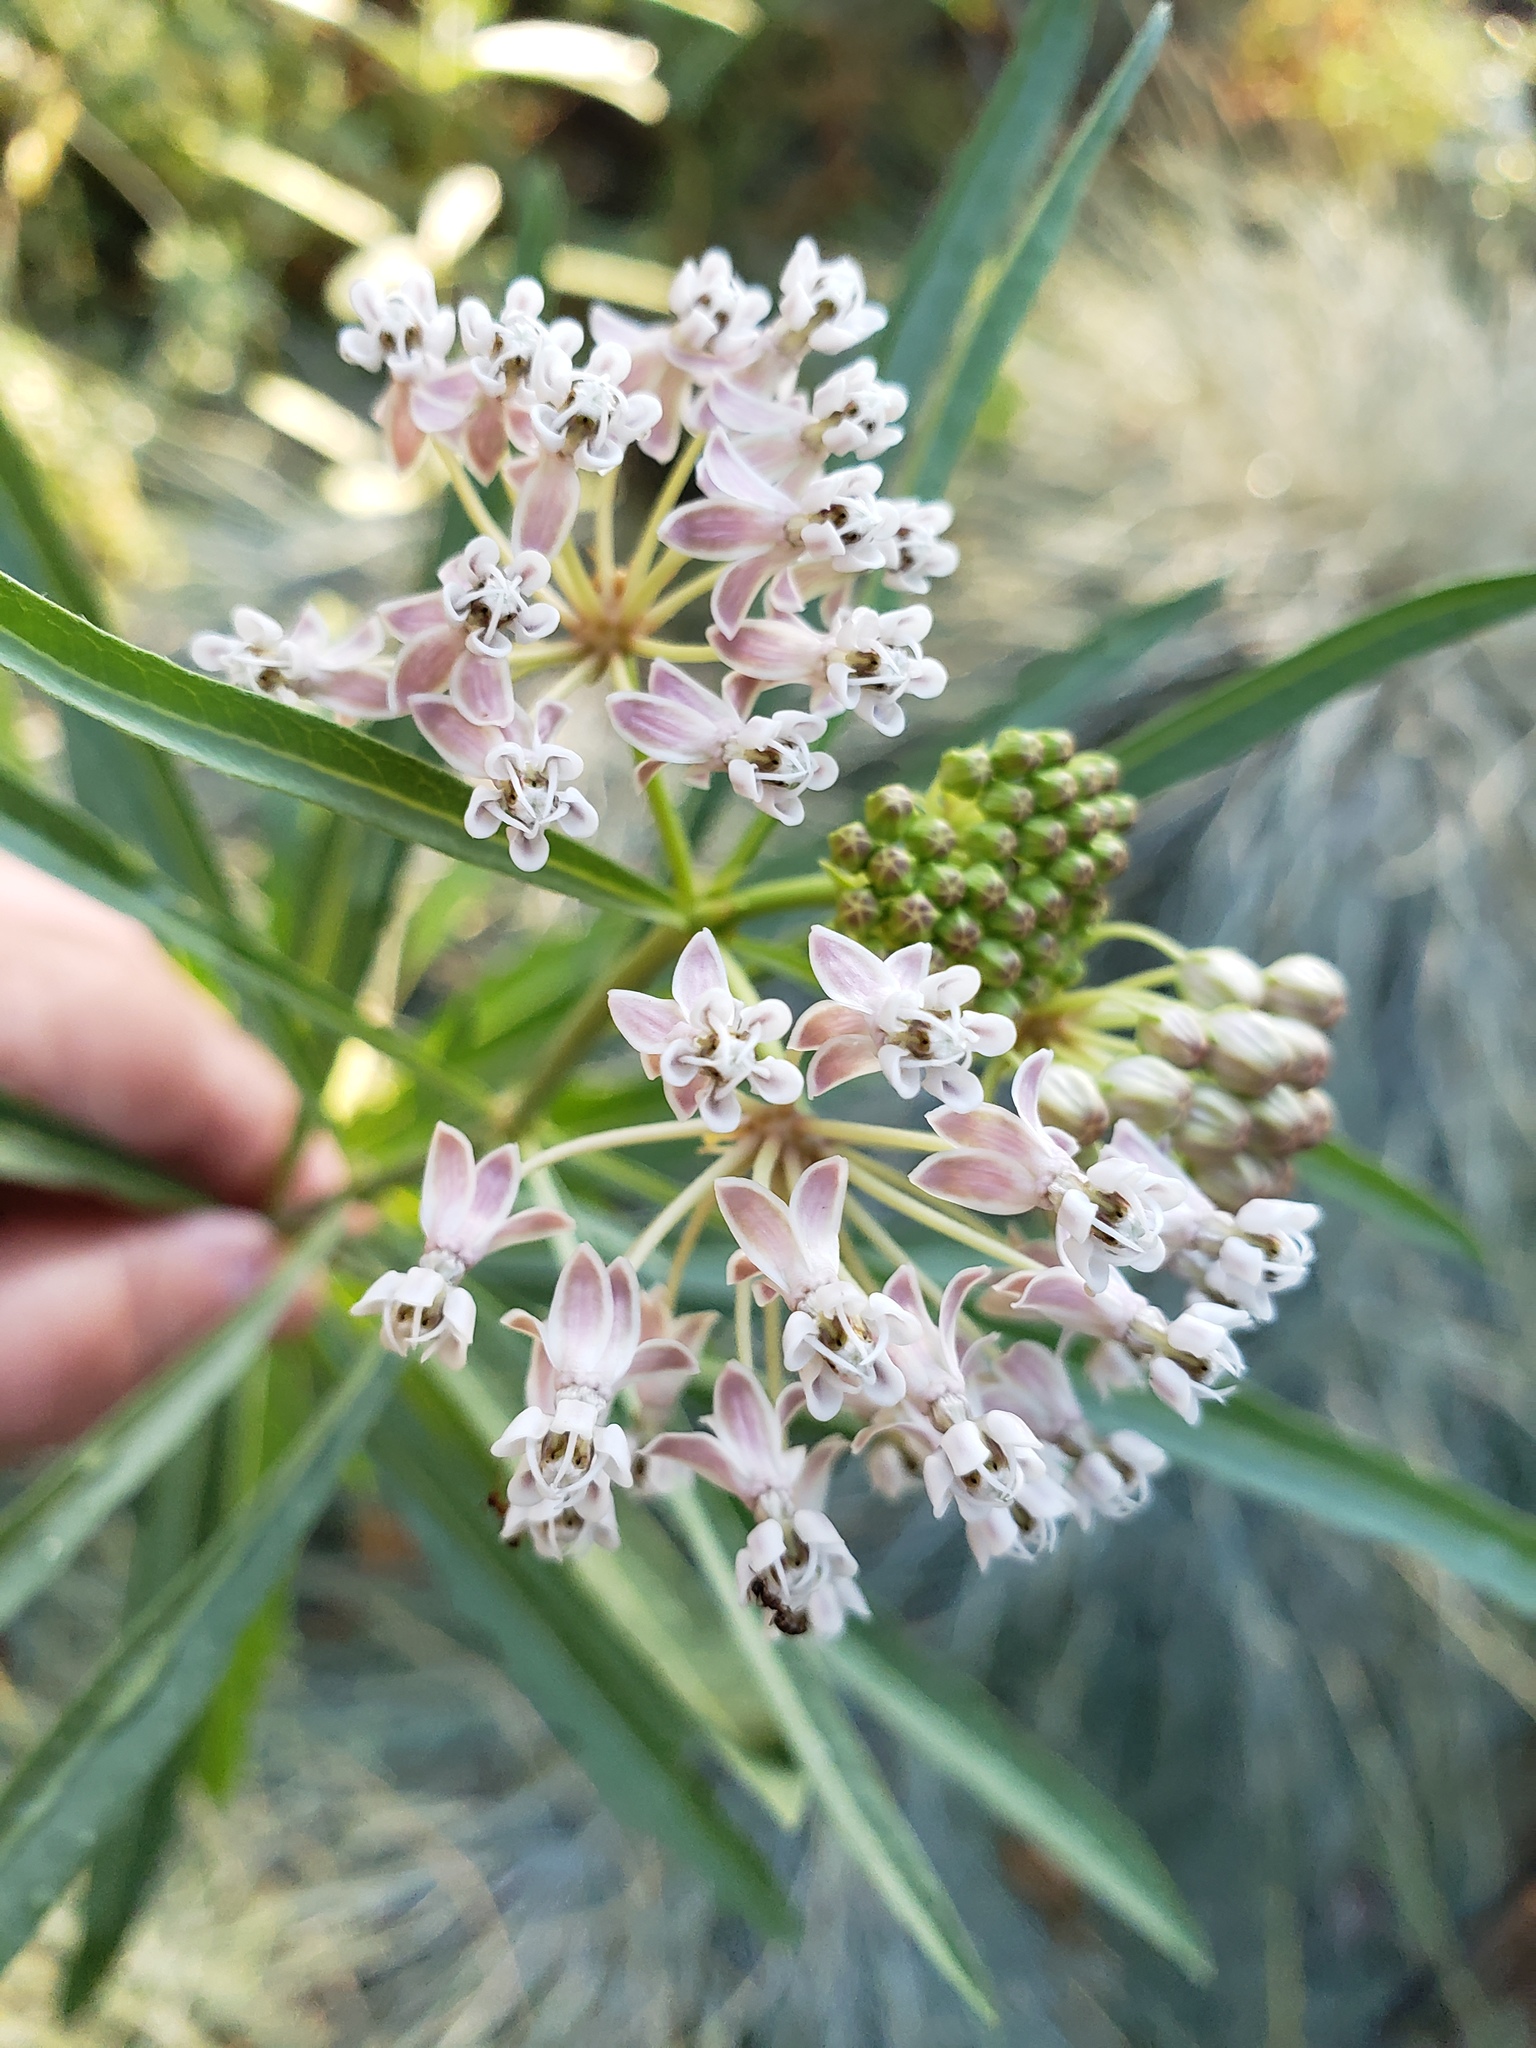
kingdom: Plantae
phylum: Tracheophyta
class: Magnoliopsida
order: Gentianales
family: Apocynaceae
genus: Asclepias
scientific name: Asclepias fascicularis
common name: Mexican milkweed
